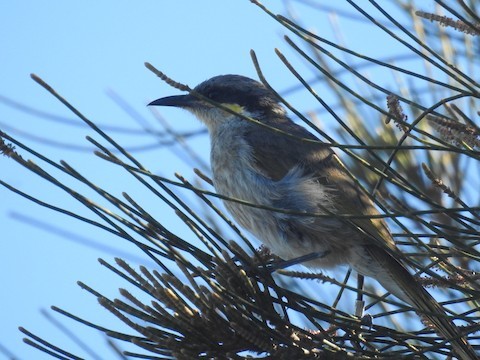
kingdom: Animalia
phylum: Chordata
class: Aves
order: Passeriformes
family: Meliphagidae
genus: Gavicalis
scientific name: Gavicalis virescens
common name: Singing honeyeater
